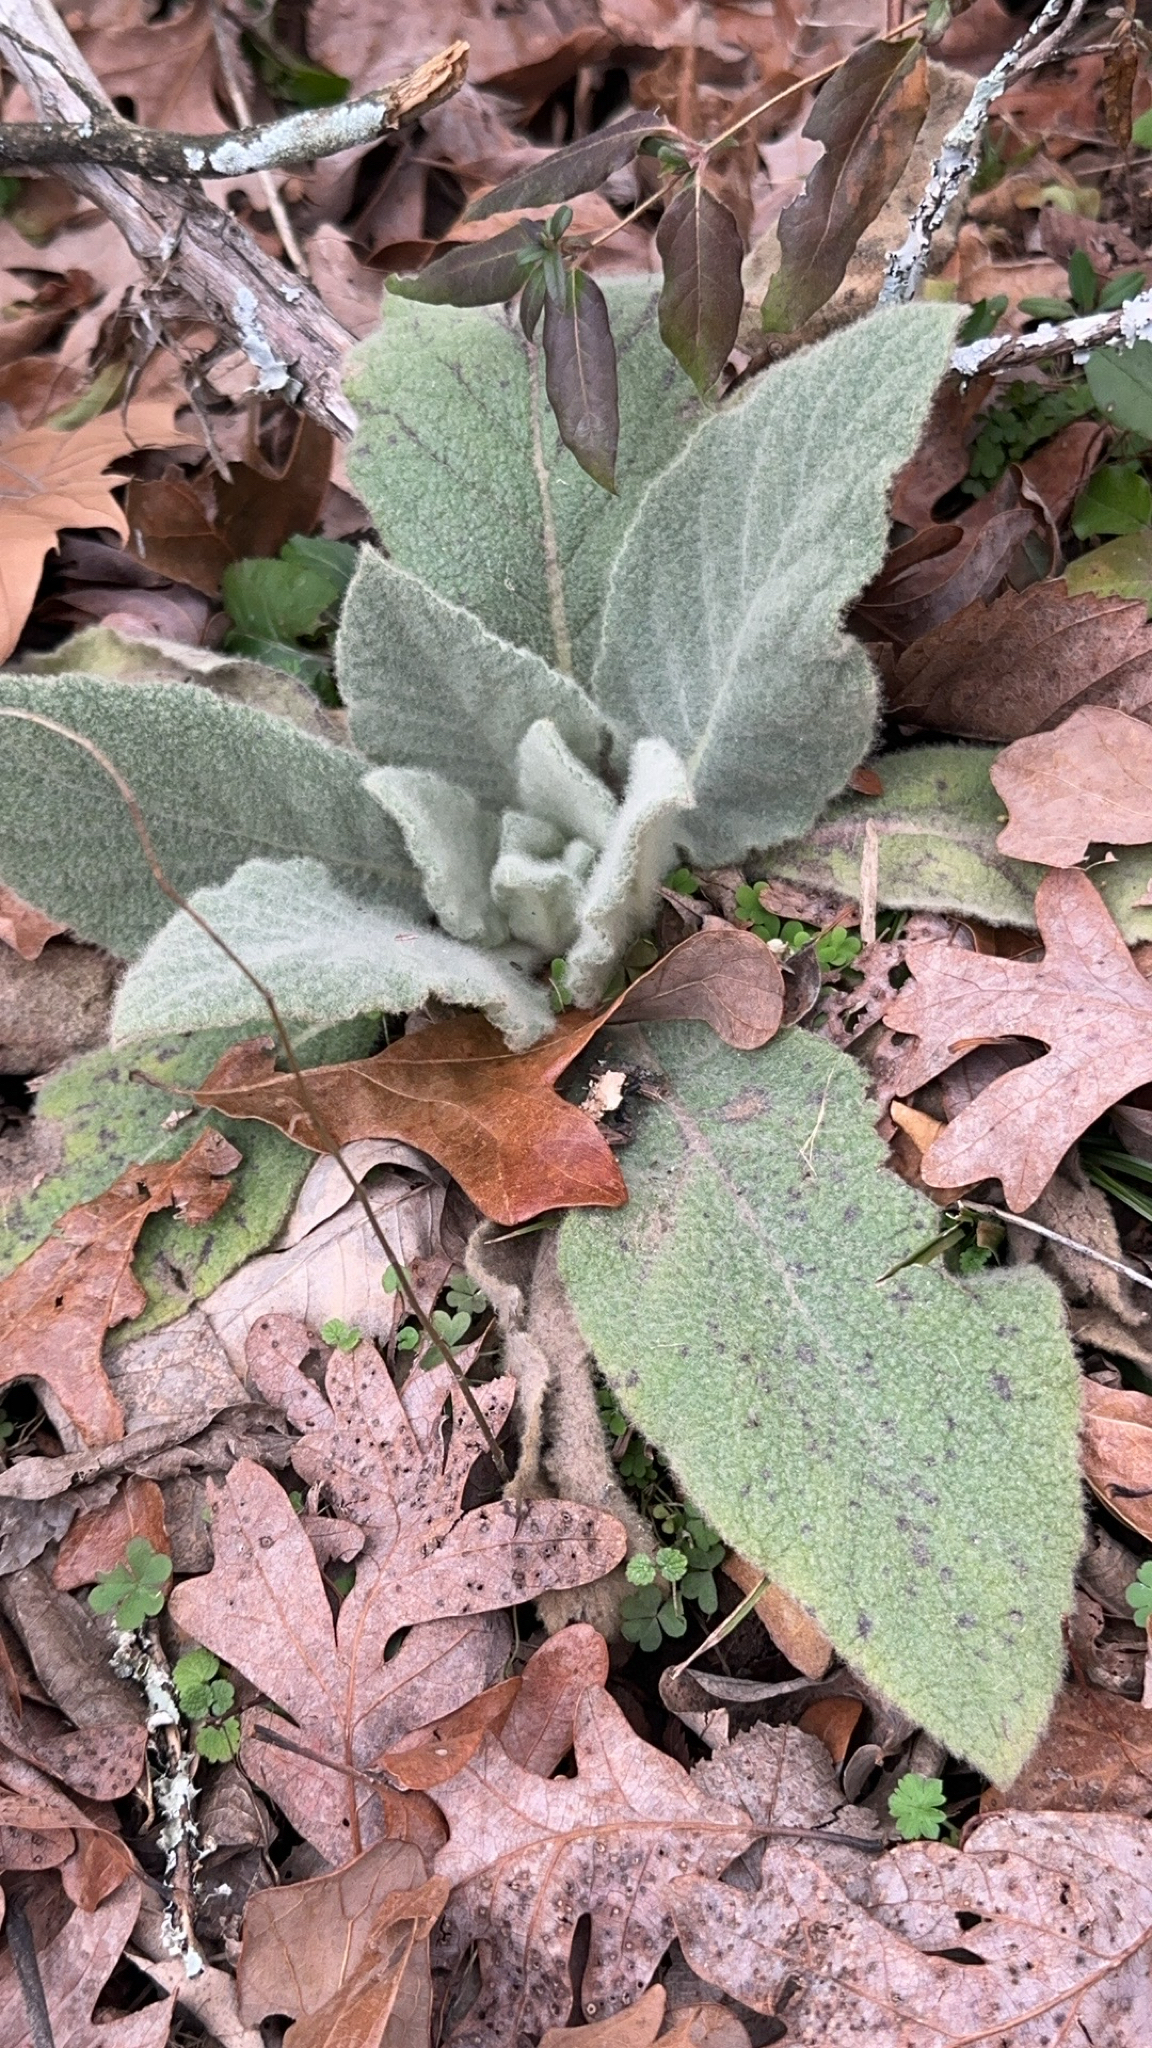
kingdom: Plantae
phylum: Tracheophyta
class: Magnoliopsida
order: Lamiales
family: Scrophulariaceae
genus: Verbascum
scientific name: Verbascum thapsus
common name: Common mullein
